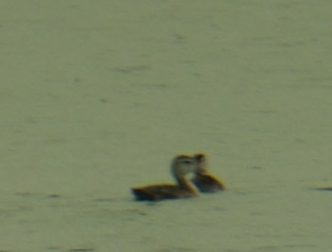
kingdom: Animalia
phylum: Chordata
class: Aves
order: Anseriformes
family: Anatidae
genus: Aix
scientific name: Aix sponsa
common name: Wood duck
